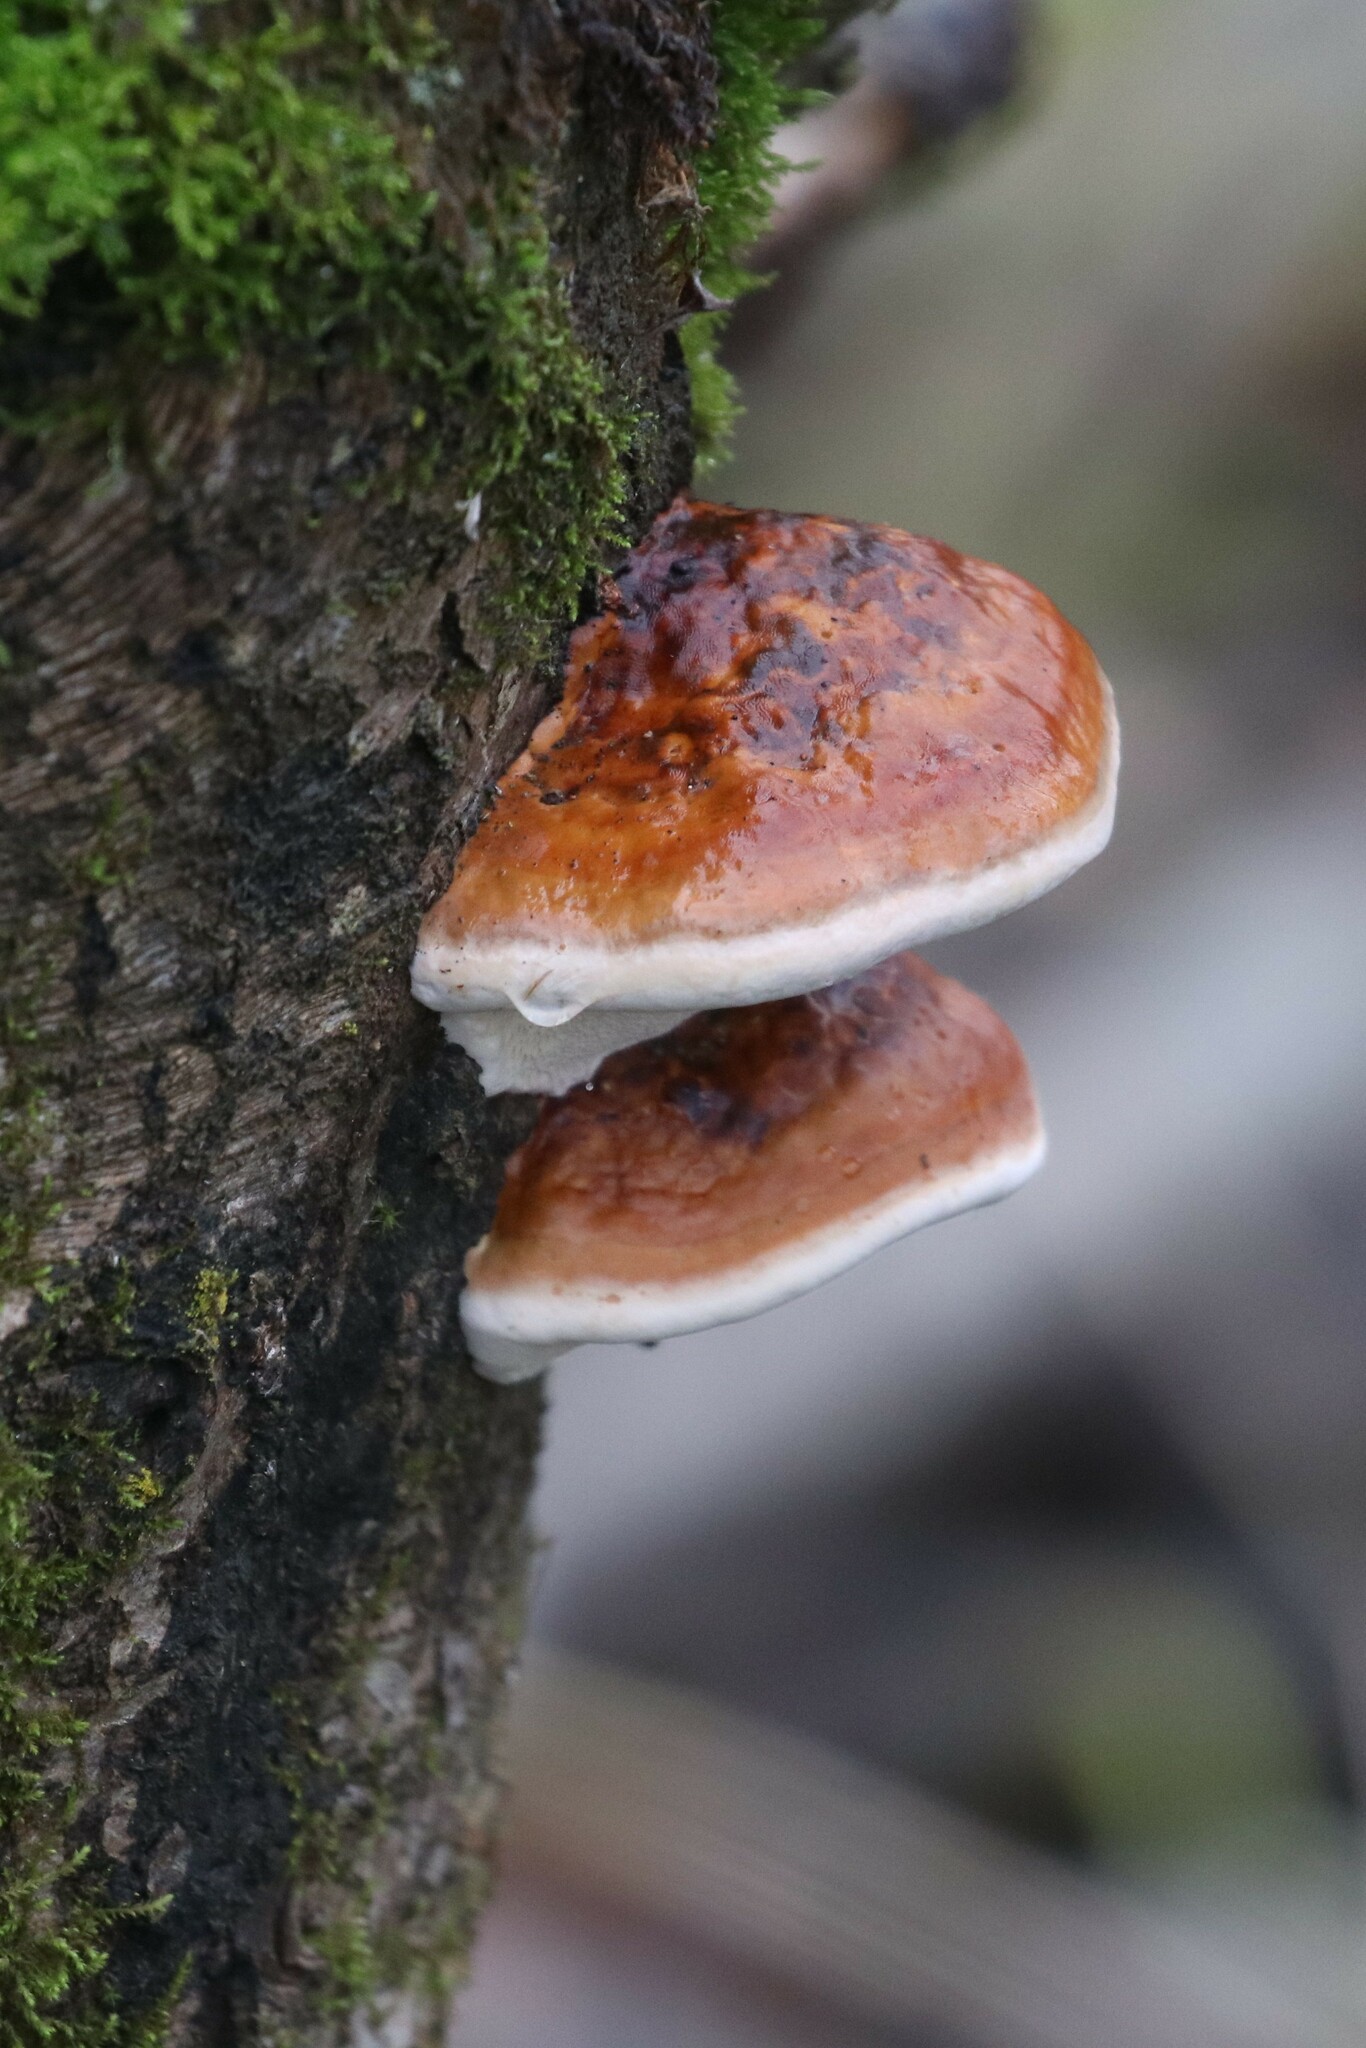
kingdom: Fungi
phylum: Basidiomycota
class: Agaricomycetes
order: Polyporales
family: Fomitopsidaceae
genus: Fomitopsis
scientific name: Fomitopsis pinicola
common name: Red-belted bracket
